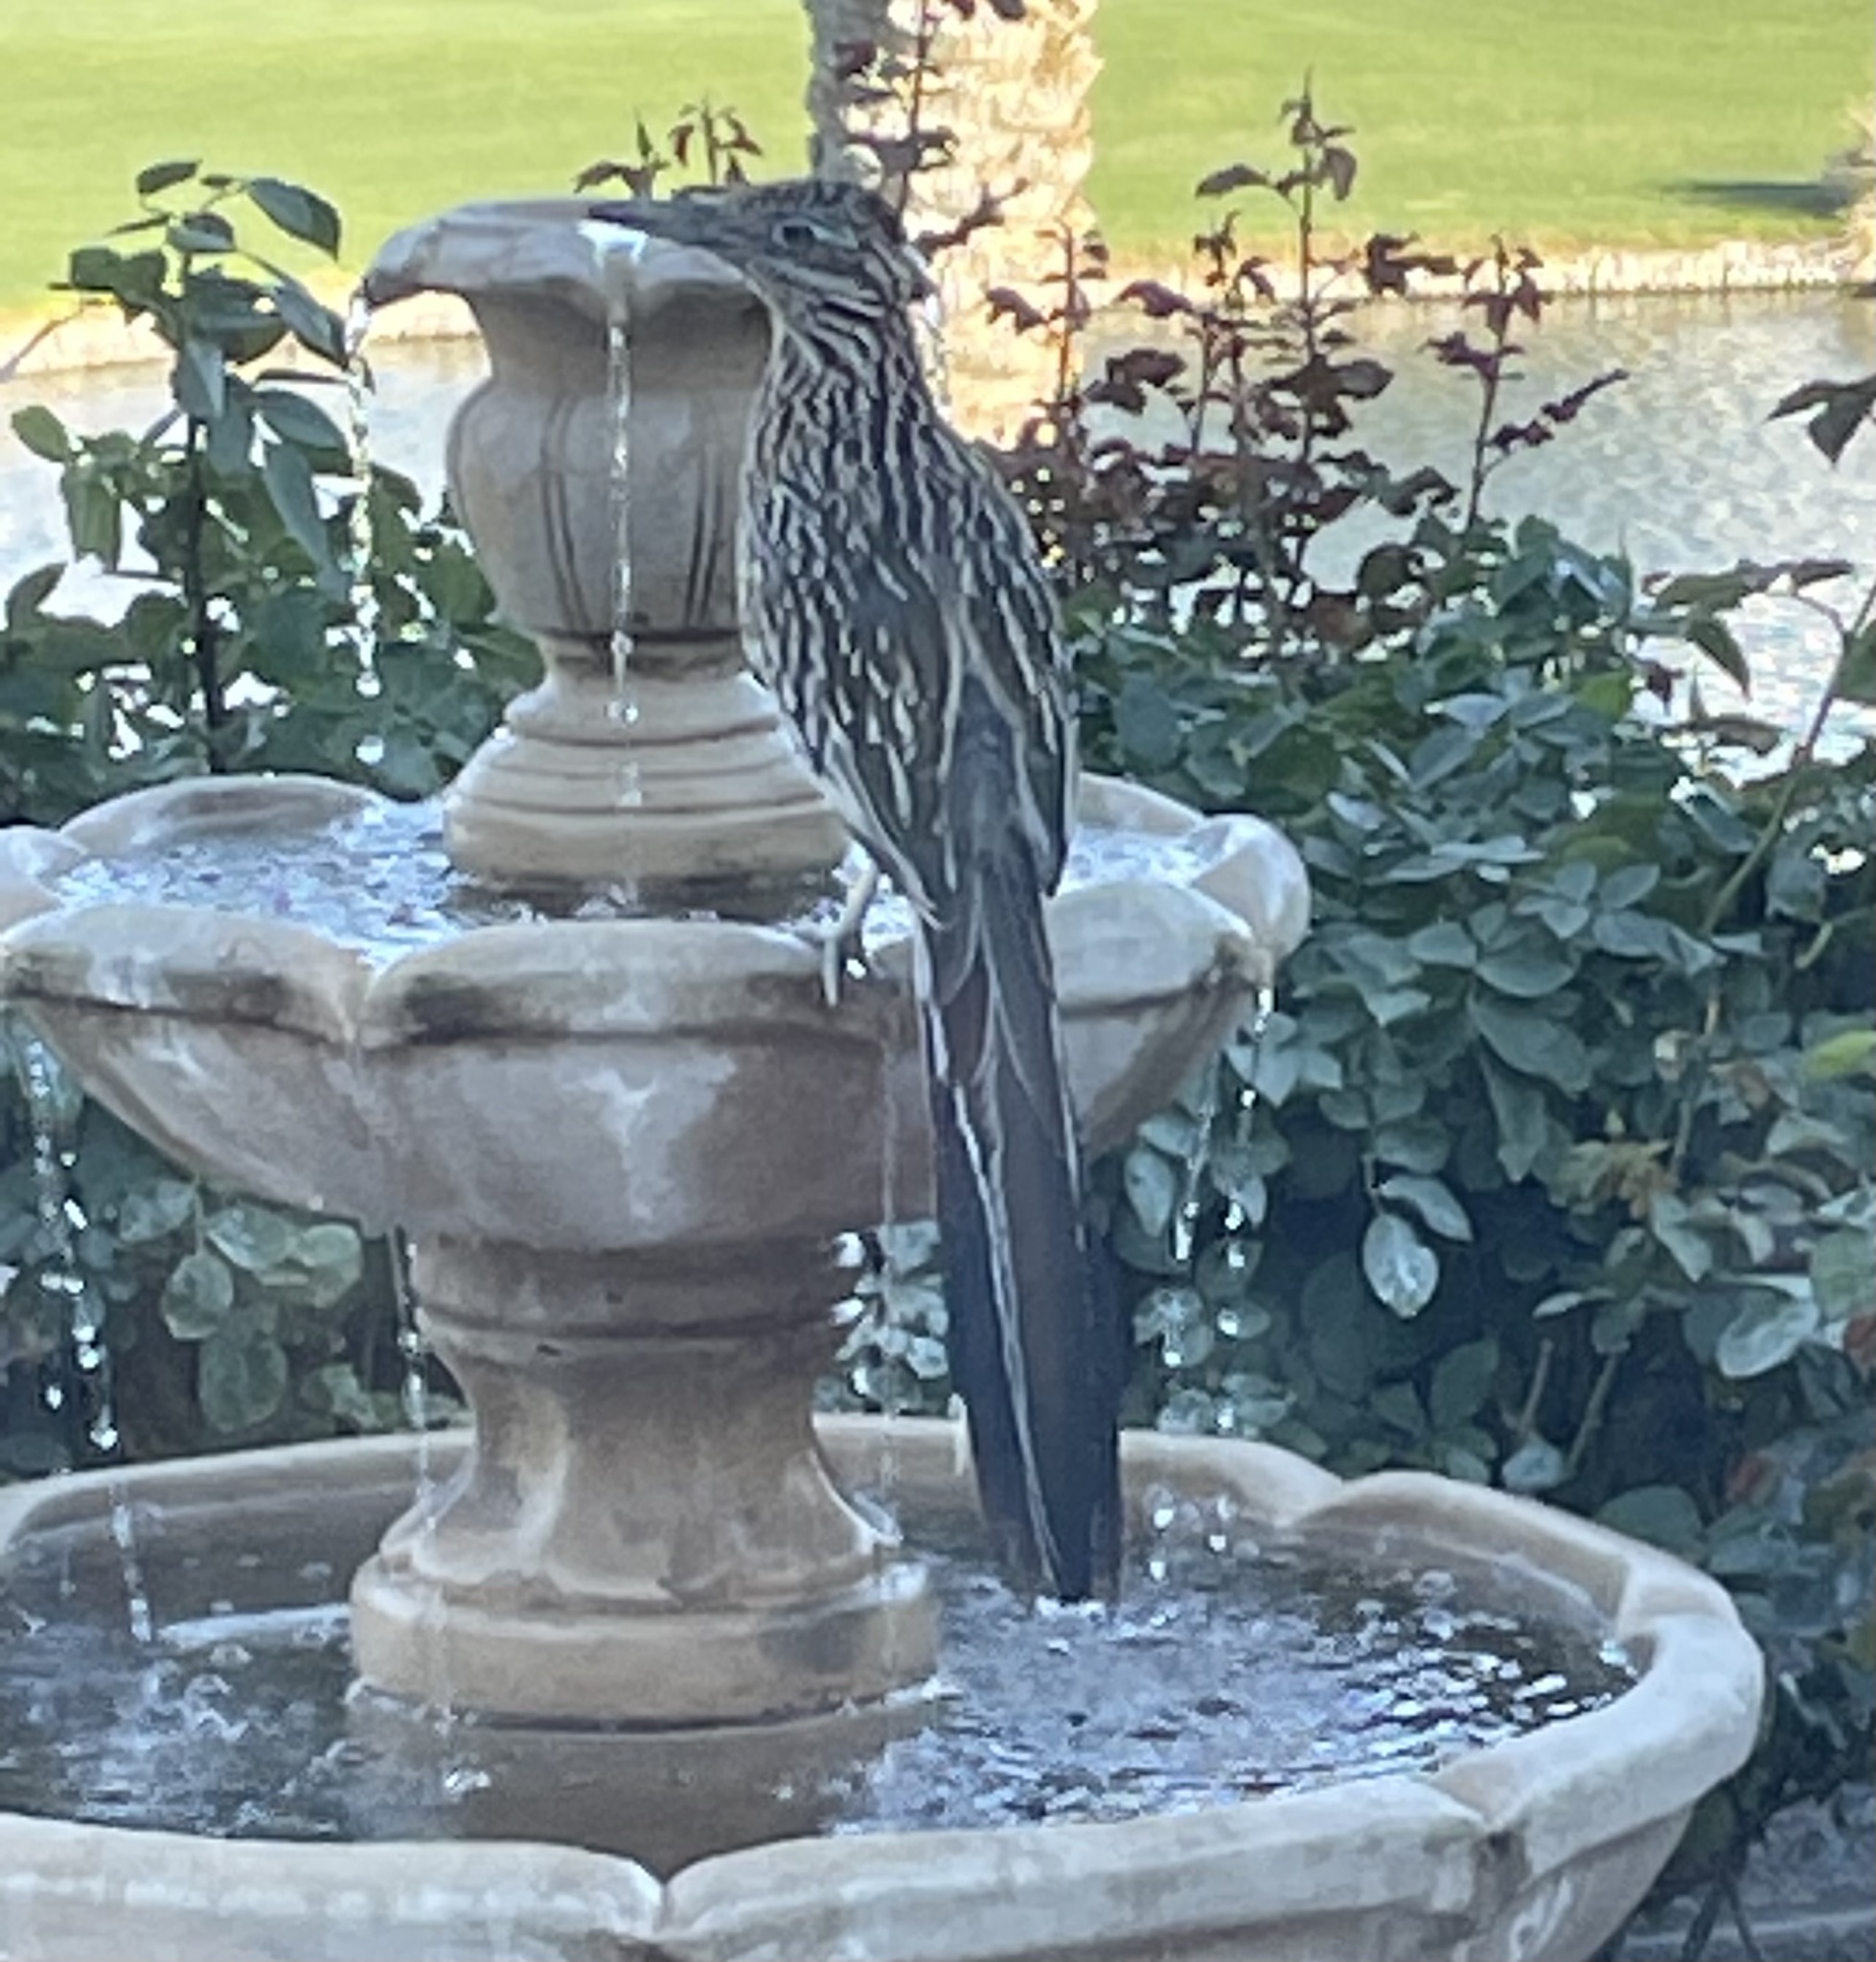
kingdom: Animalia
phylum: Chordata
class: Aves
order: Cuculiformes
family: Cuculidae
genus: Geococcyx
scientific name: Geococcyx californianus
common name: Greater roadrunner
